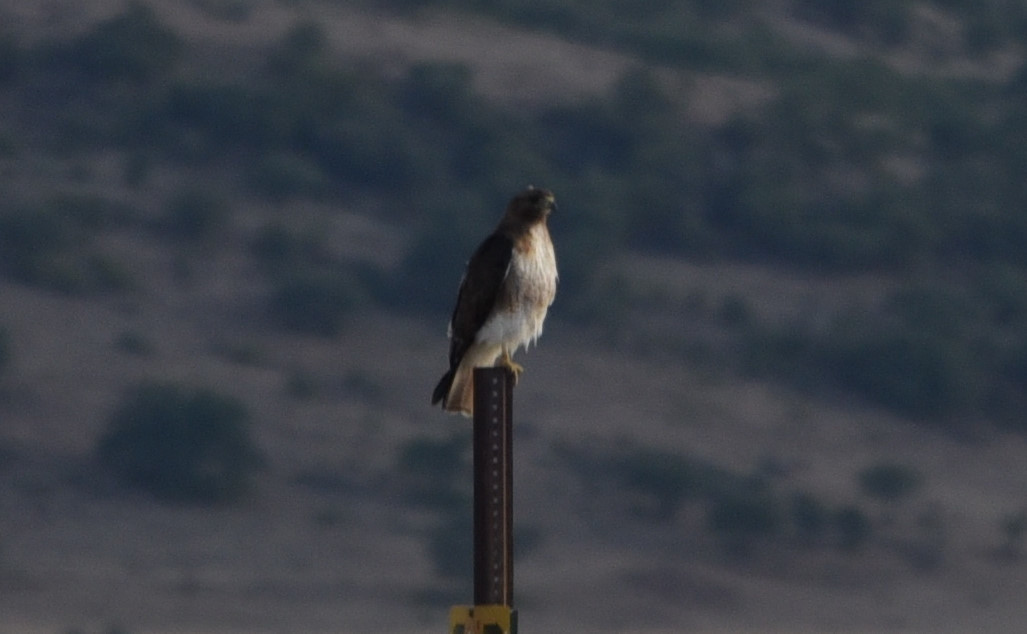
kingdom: Animalia
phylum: Chordata
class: Aves
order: Accipitriformes
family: Accipitridae
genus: Buteo
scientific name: Buteo jamaicensis
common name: Red-tailed hawk
